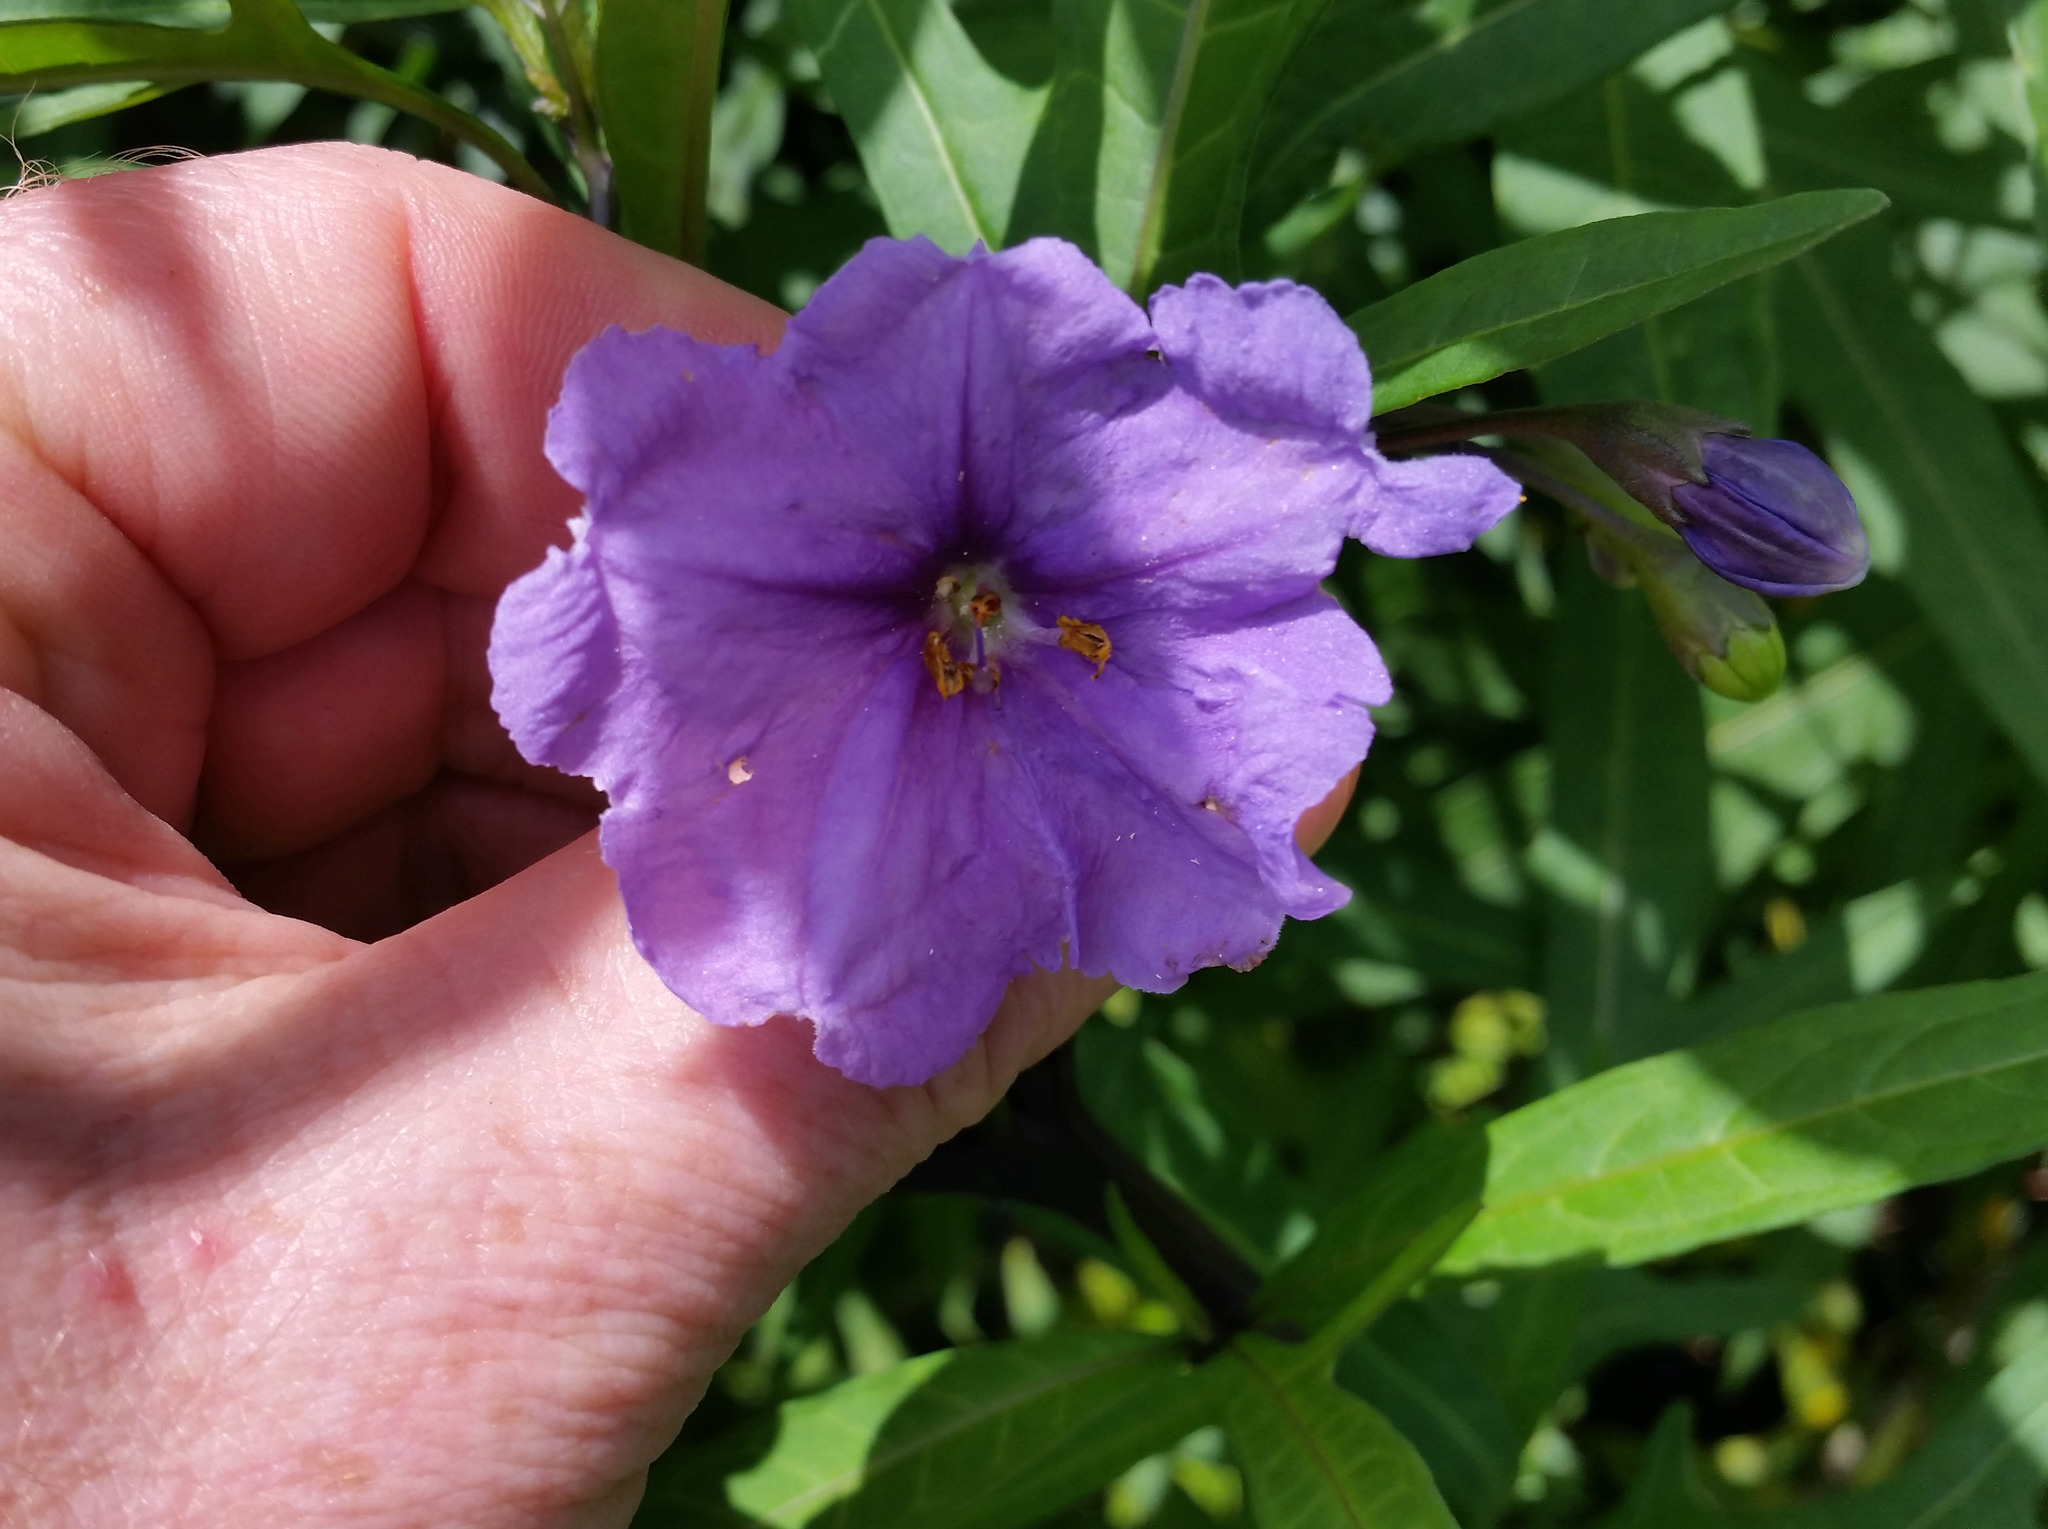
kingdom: Plantae
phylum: Tracheophyta
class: Magnoliopsida
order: Solanales
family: Solanaceae
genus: Solanum
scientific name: Solanum laciniatum
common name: Kangaroo-apple
